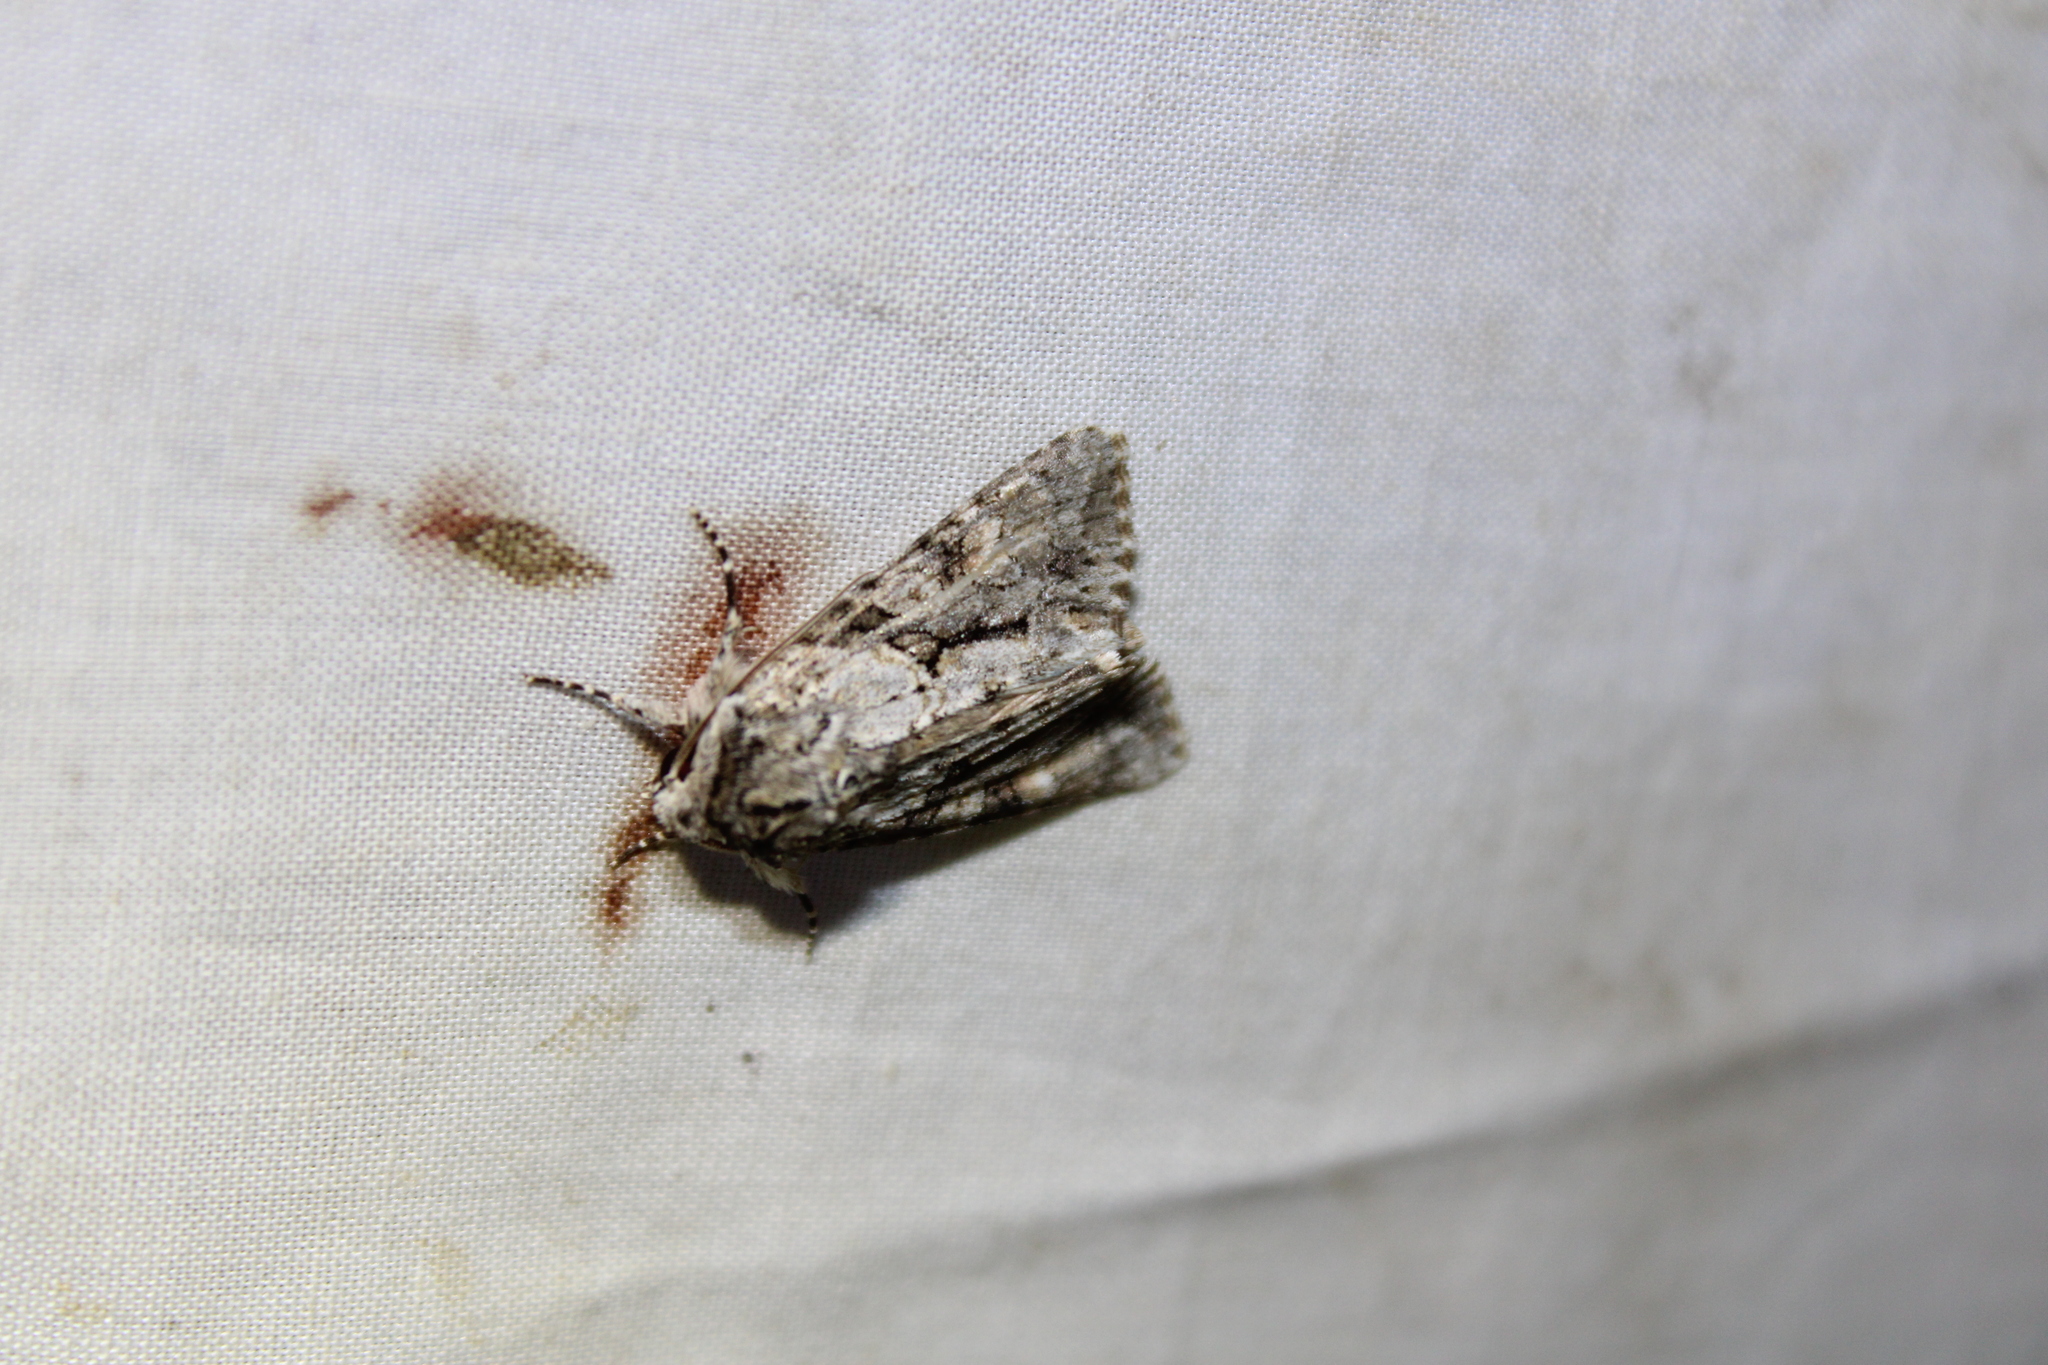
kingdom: Animalia
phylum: Arthropoda
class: Insecta
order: Lepidoptera
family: Noctuidae
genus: Achatia
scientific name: Achatia distincta
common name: Distinct quaker
